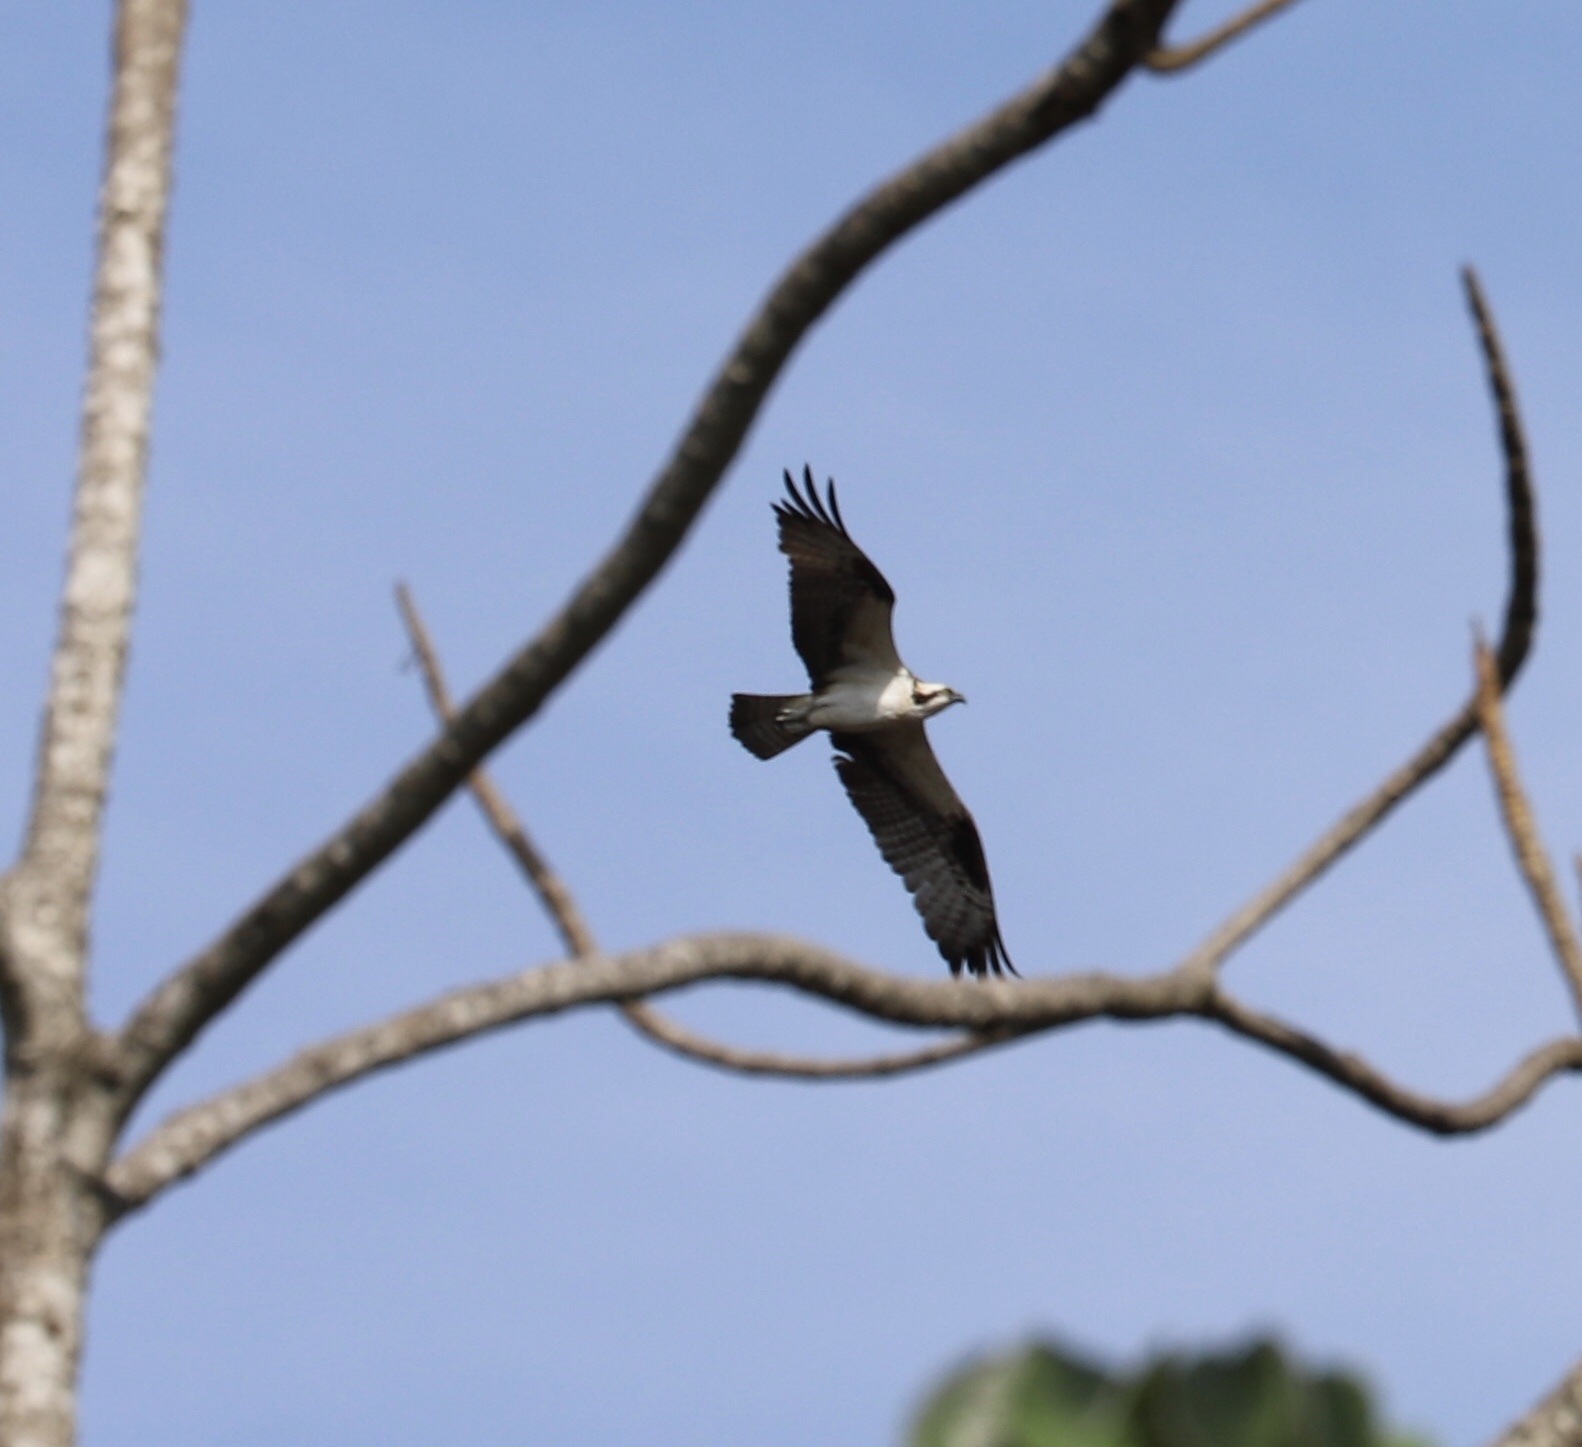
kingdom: Animalia
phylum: Chordata
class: Aves
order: Accipitriformes
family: Pandionidae
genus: Pandion
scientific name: Pandion haliaetus
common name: Osprey
